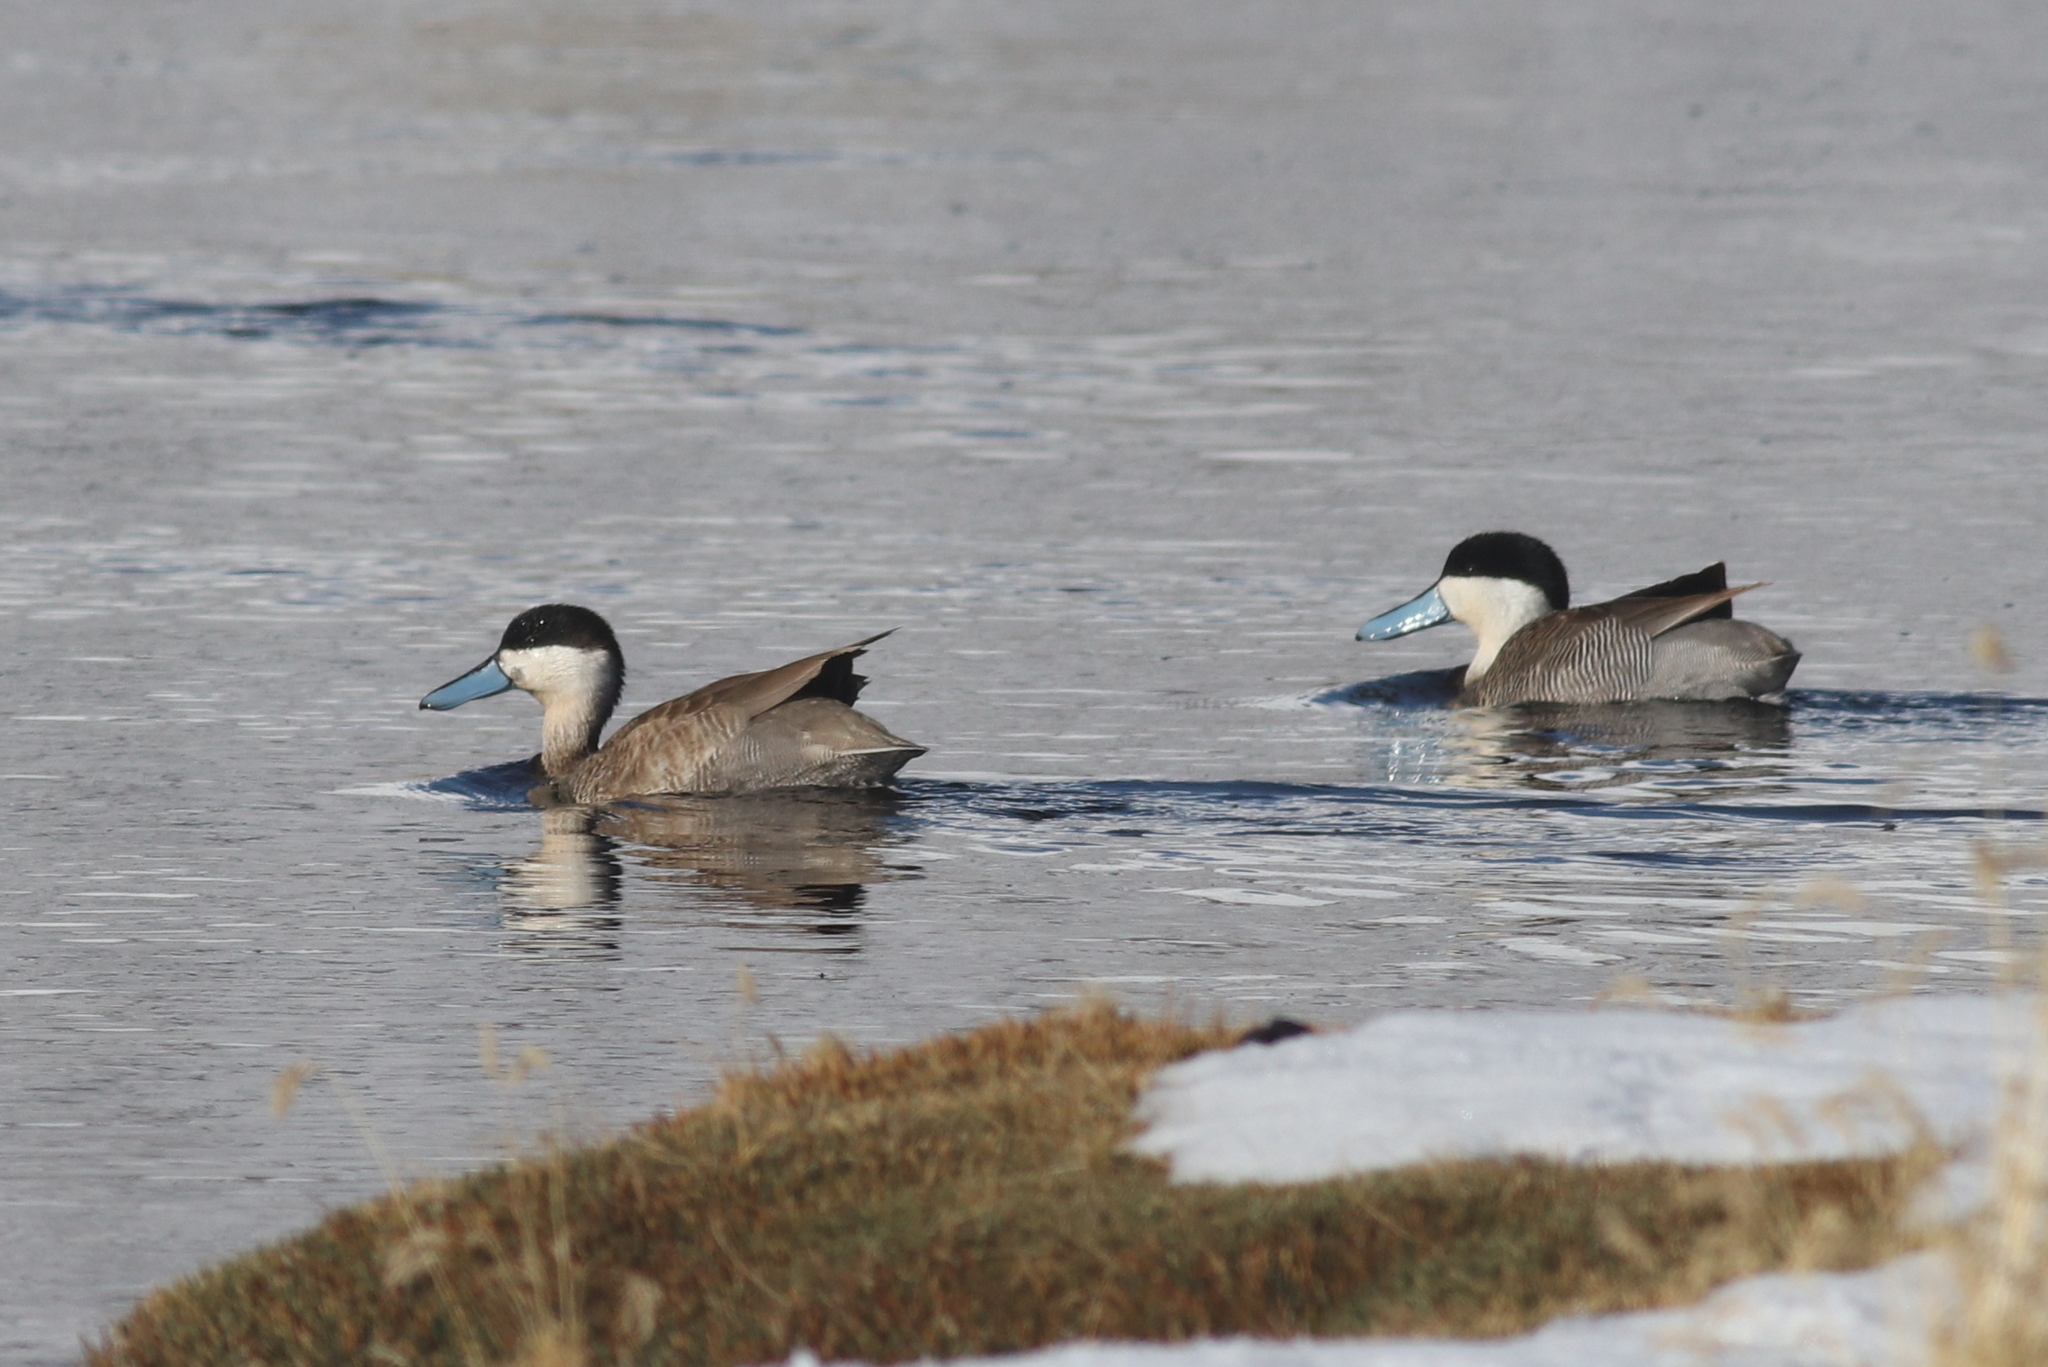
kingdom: Animalia
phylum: Chordata
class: Aves
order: Anseriformes
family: Anatidae
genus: Spatula
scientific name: Spatula puna
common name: Puna teal
